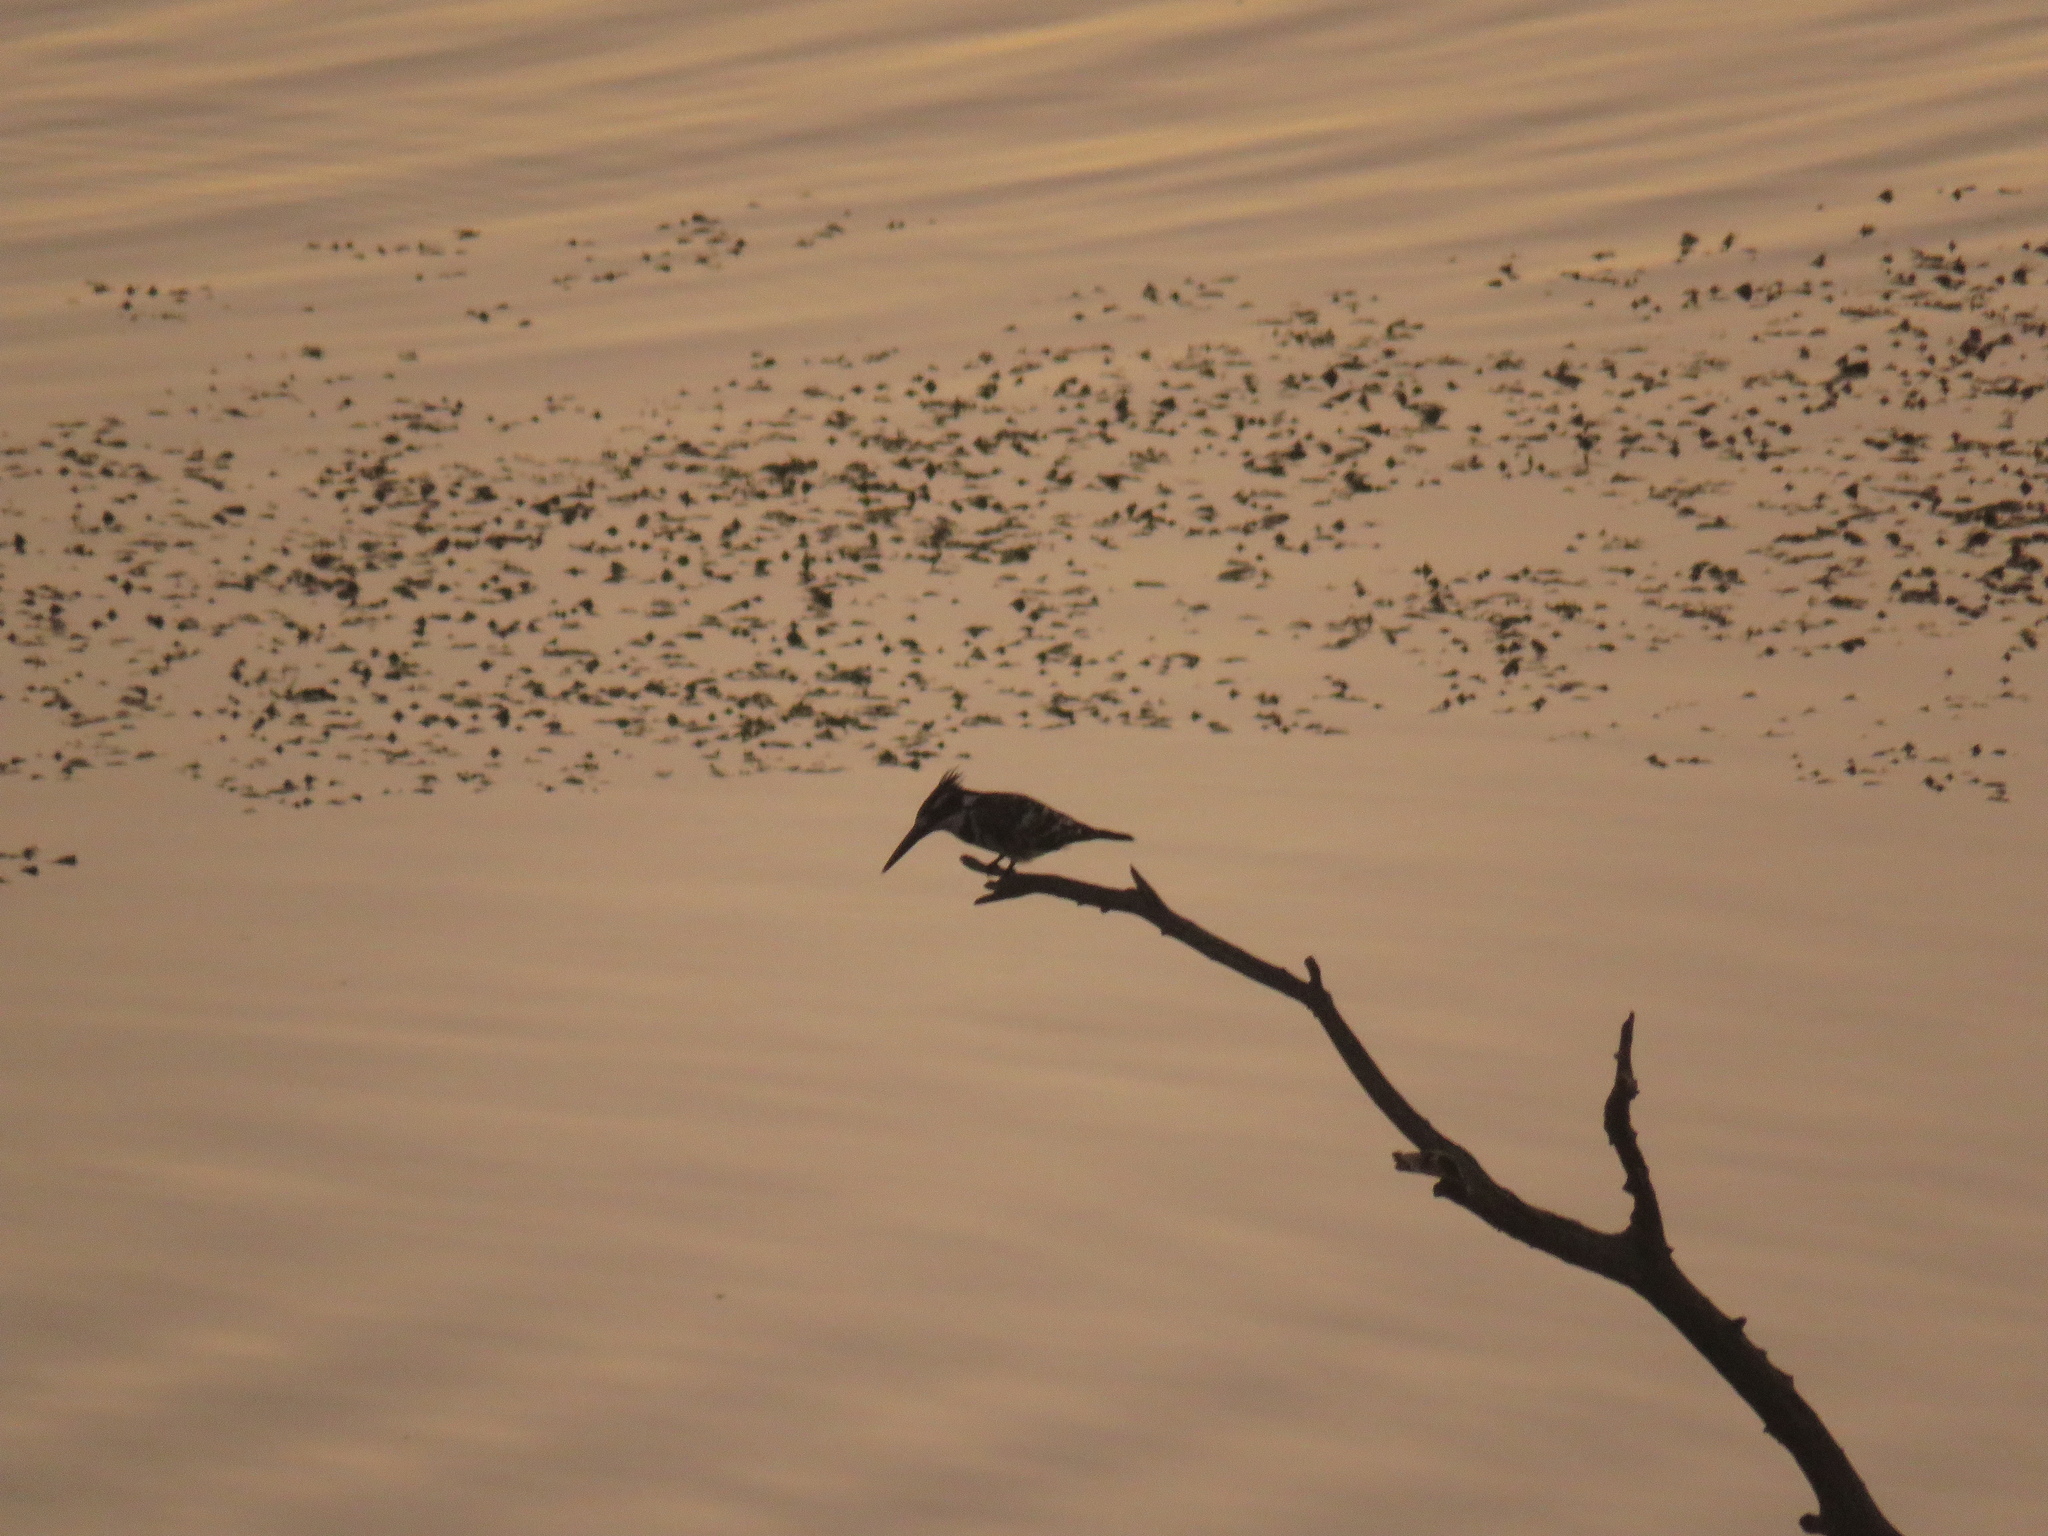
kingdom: Animalia
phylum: Chordata
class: Aves
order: Coraciiformes
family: Alcedinidae
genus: Ceryle
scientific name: Ceryle rudis
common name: Pied kingfisher
